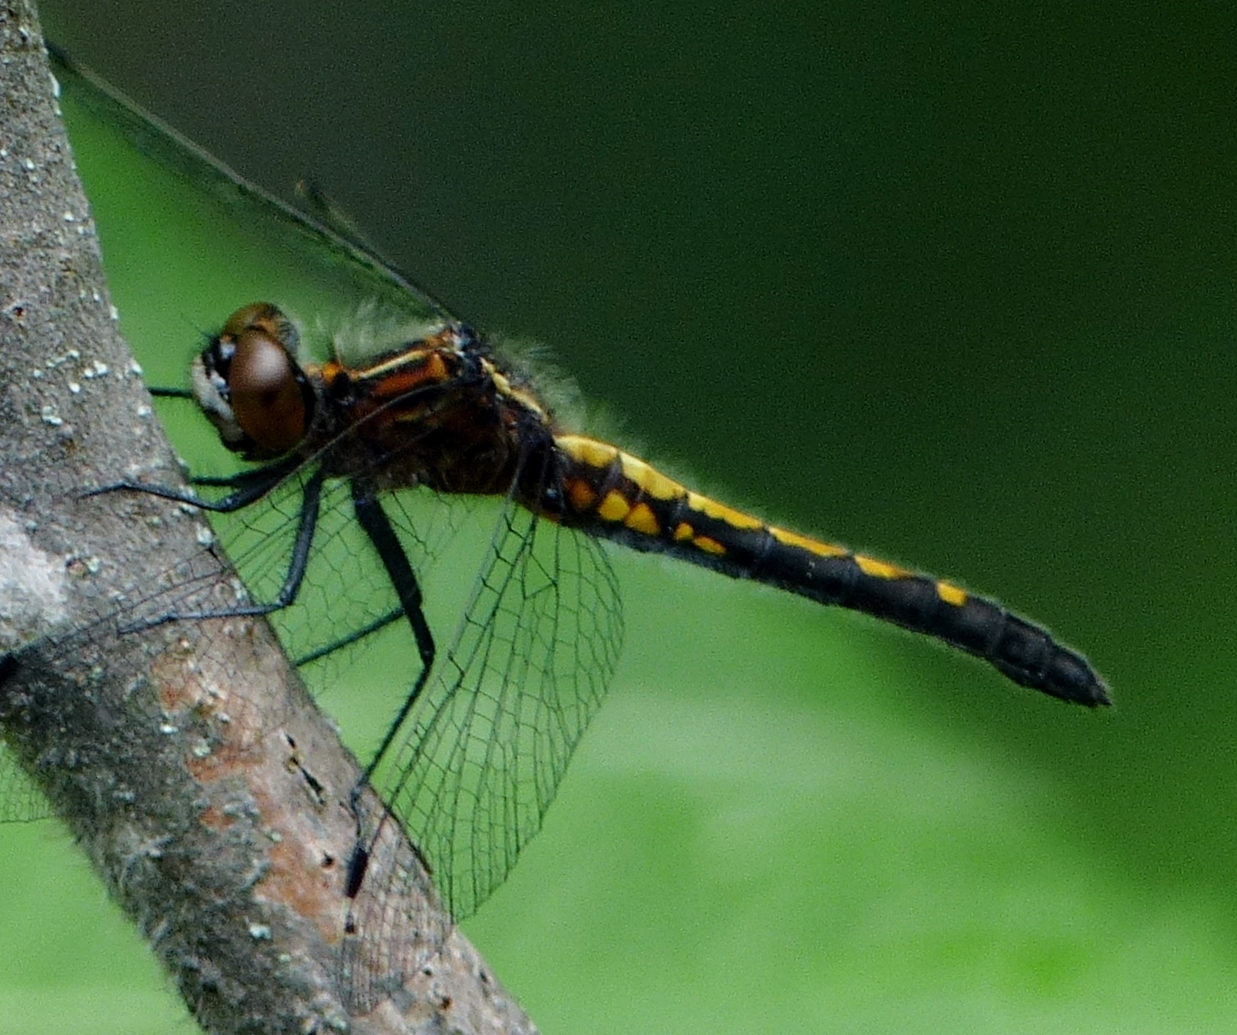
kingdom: Animalia
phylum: Arthropoda
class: Insecta
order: Odonata
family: Libellulidae
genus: Leucorrhinia
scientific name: Leucorrhinia intacta
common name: Dot-tailed whiteface
